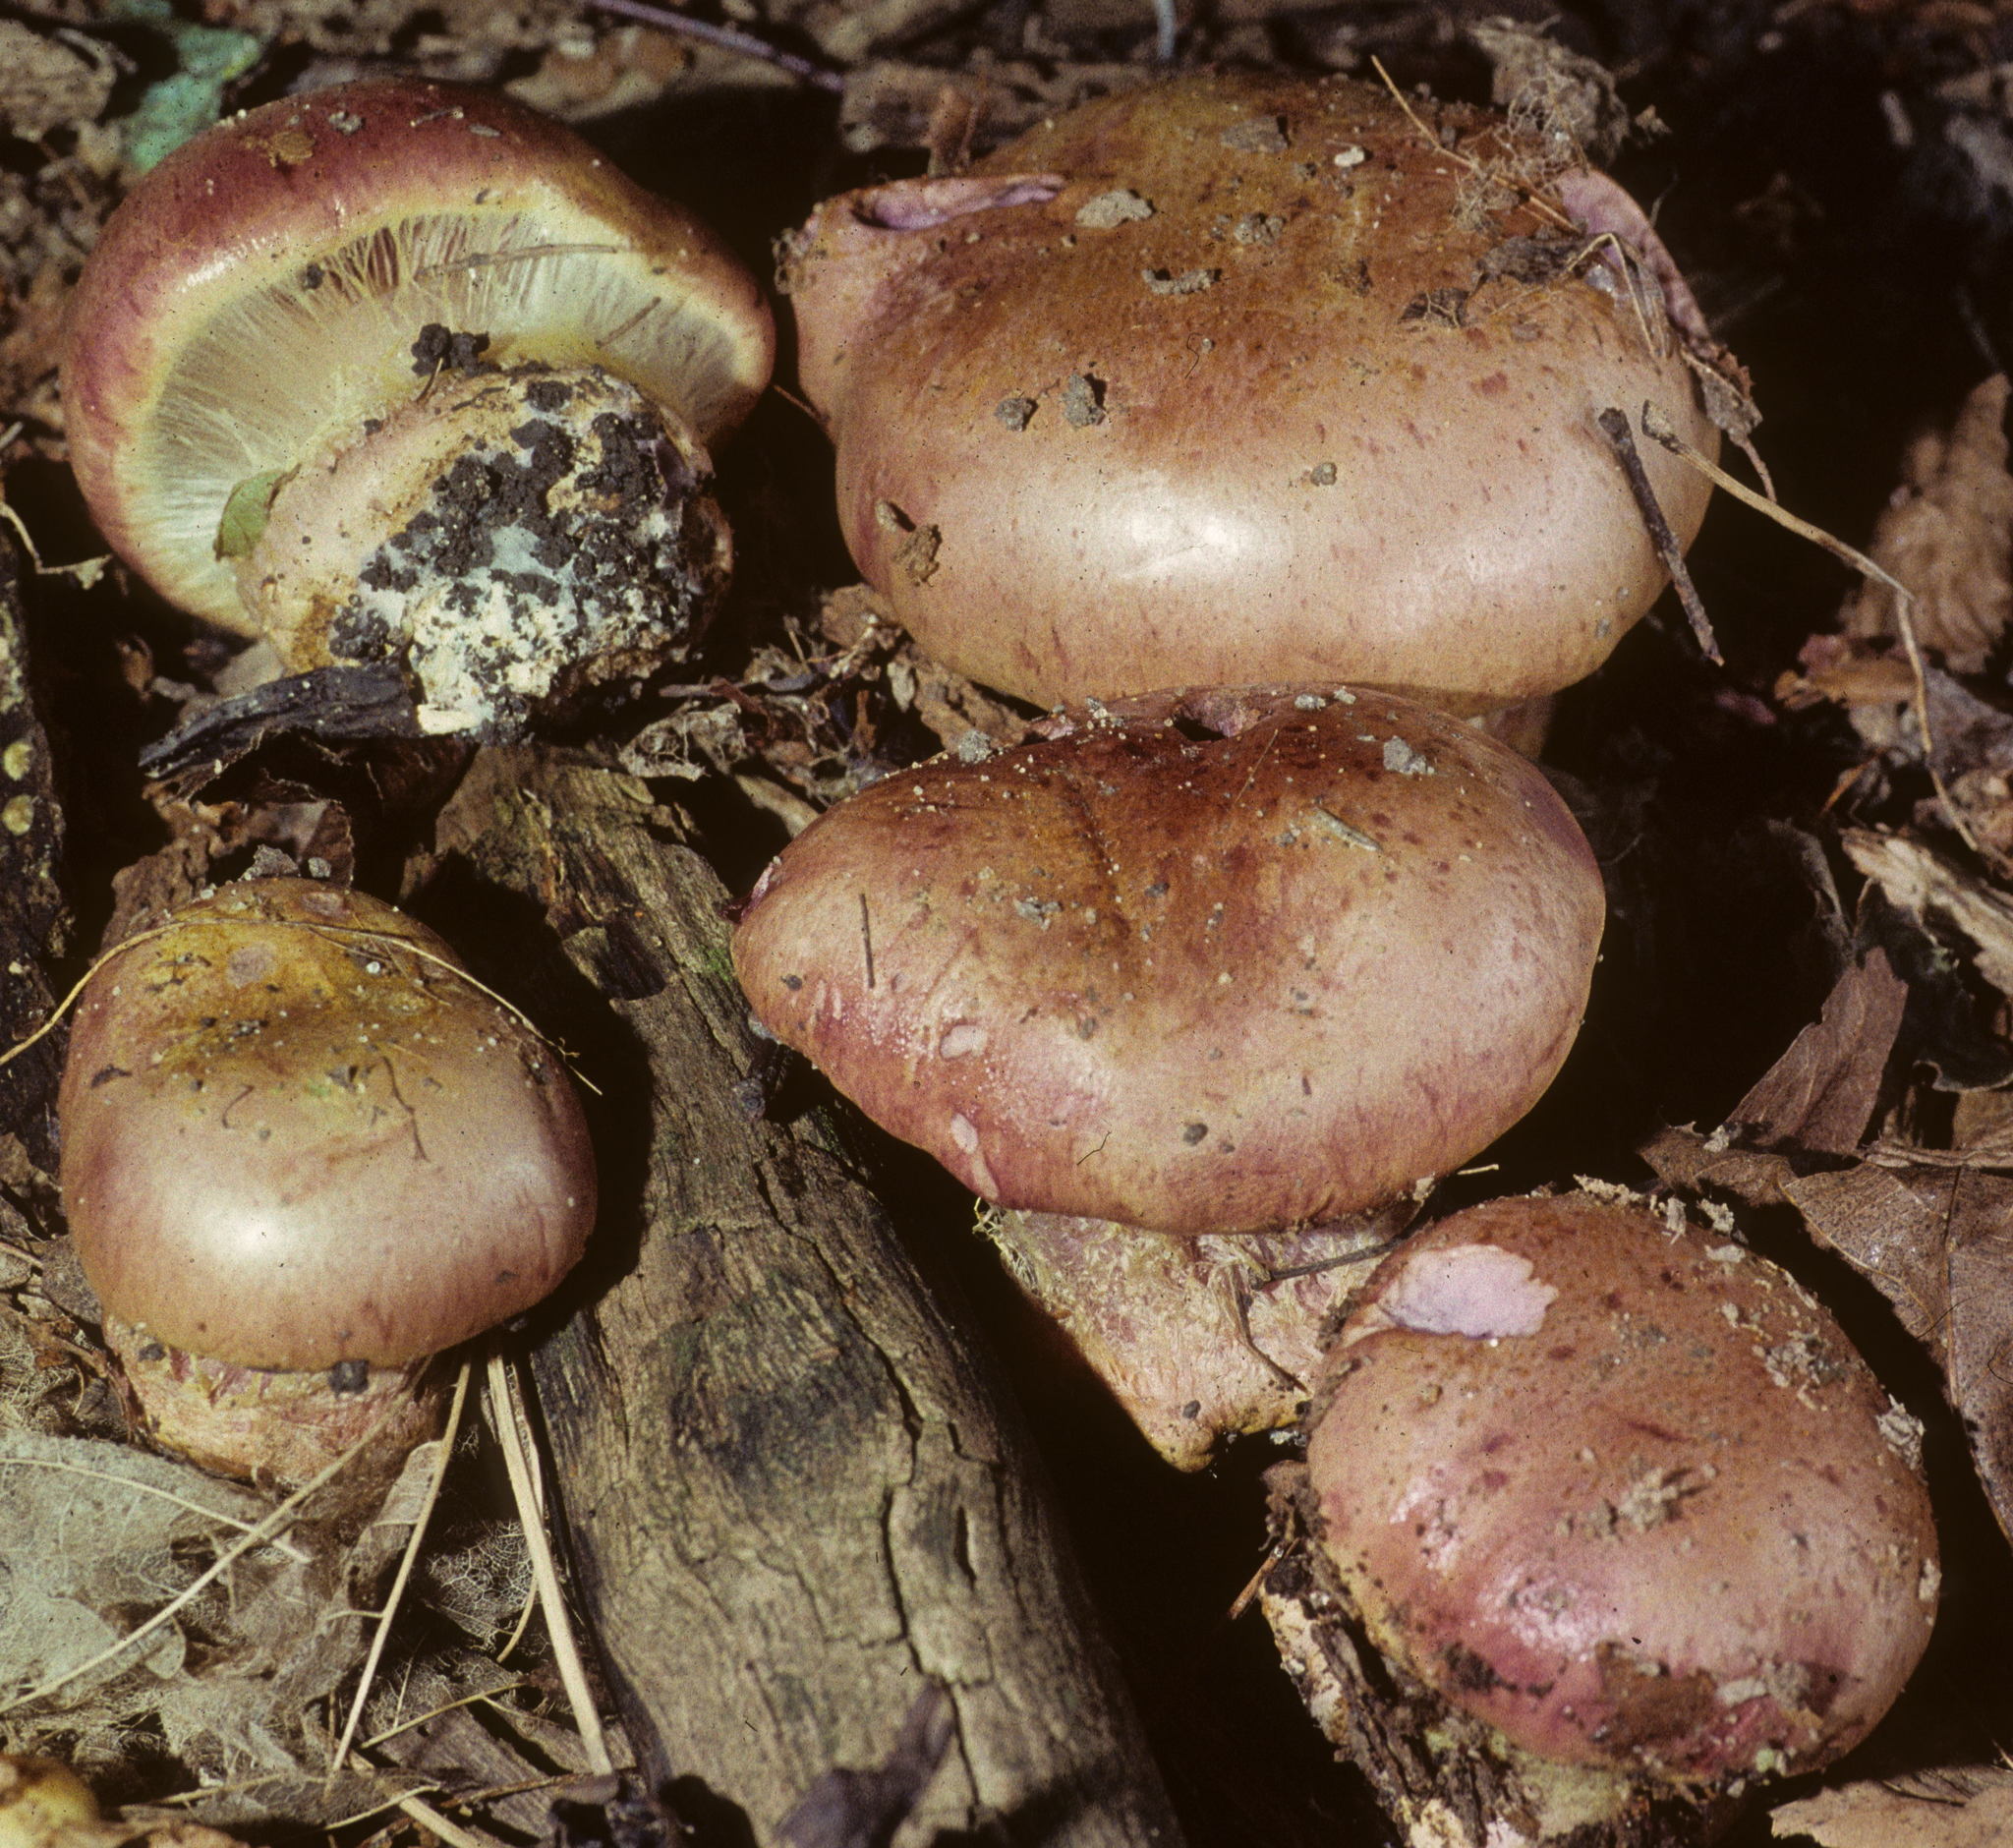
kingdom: Fungi
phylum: Basidiomycota
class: Agaricomycetes
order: Agaricales
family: Cortinariaceae
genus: Cortinarius
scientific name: Cortinarius atkinsonianus
